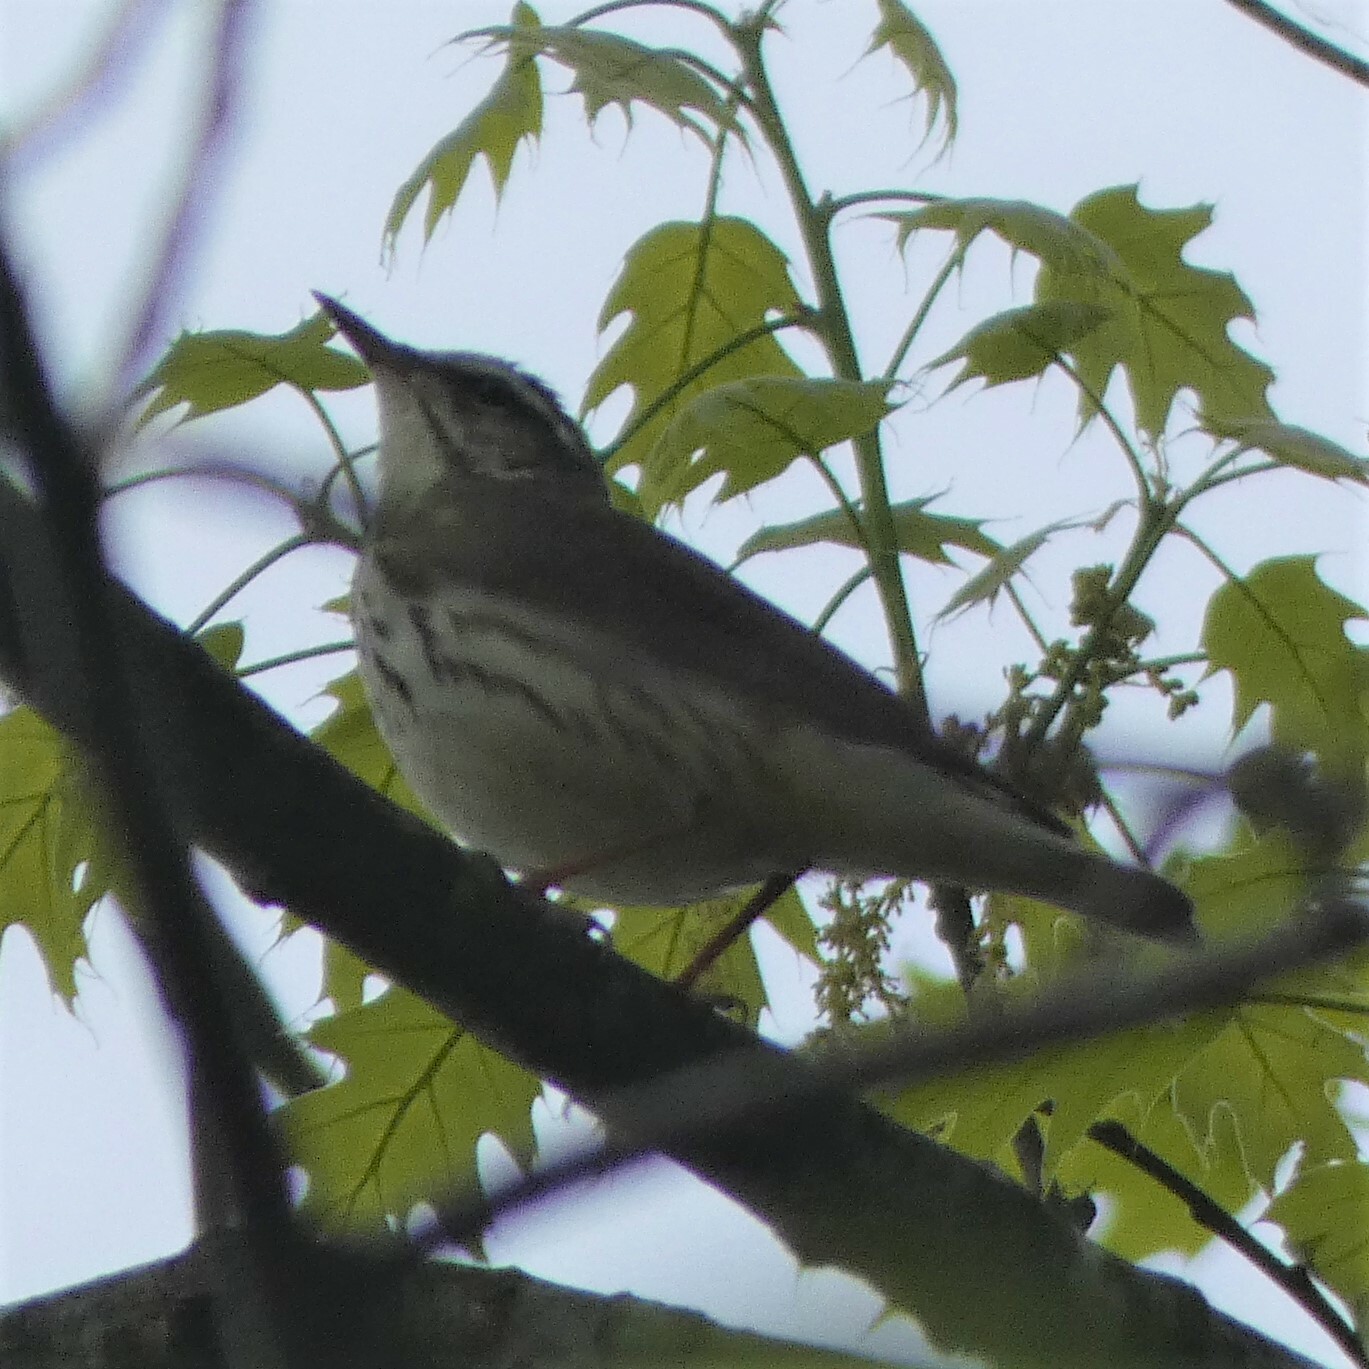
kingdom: Animalia
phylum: Chordata
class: Aves
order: Passeriformes
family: Parulidae
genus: Parkesia
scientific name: Parkesia motacilla
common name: Louisiana waterthrush
